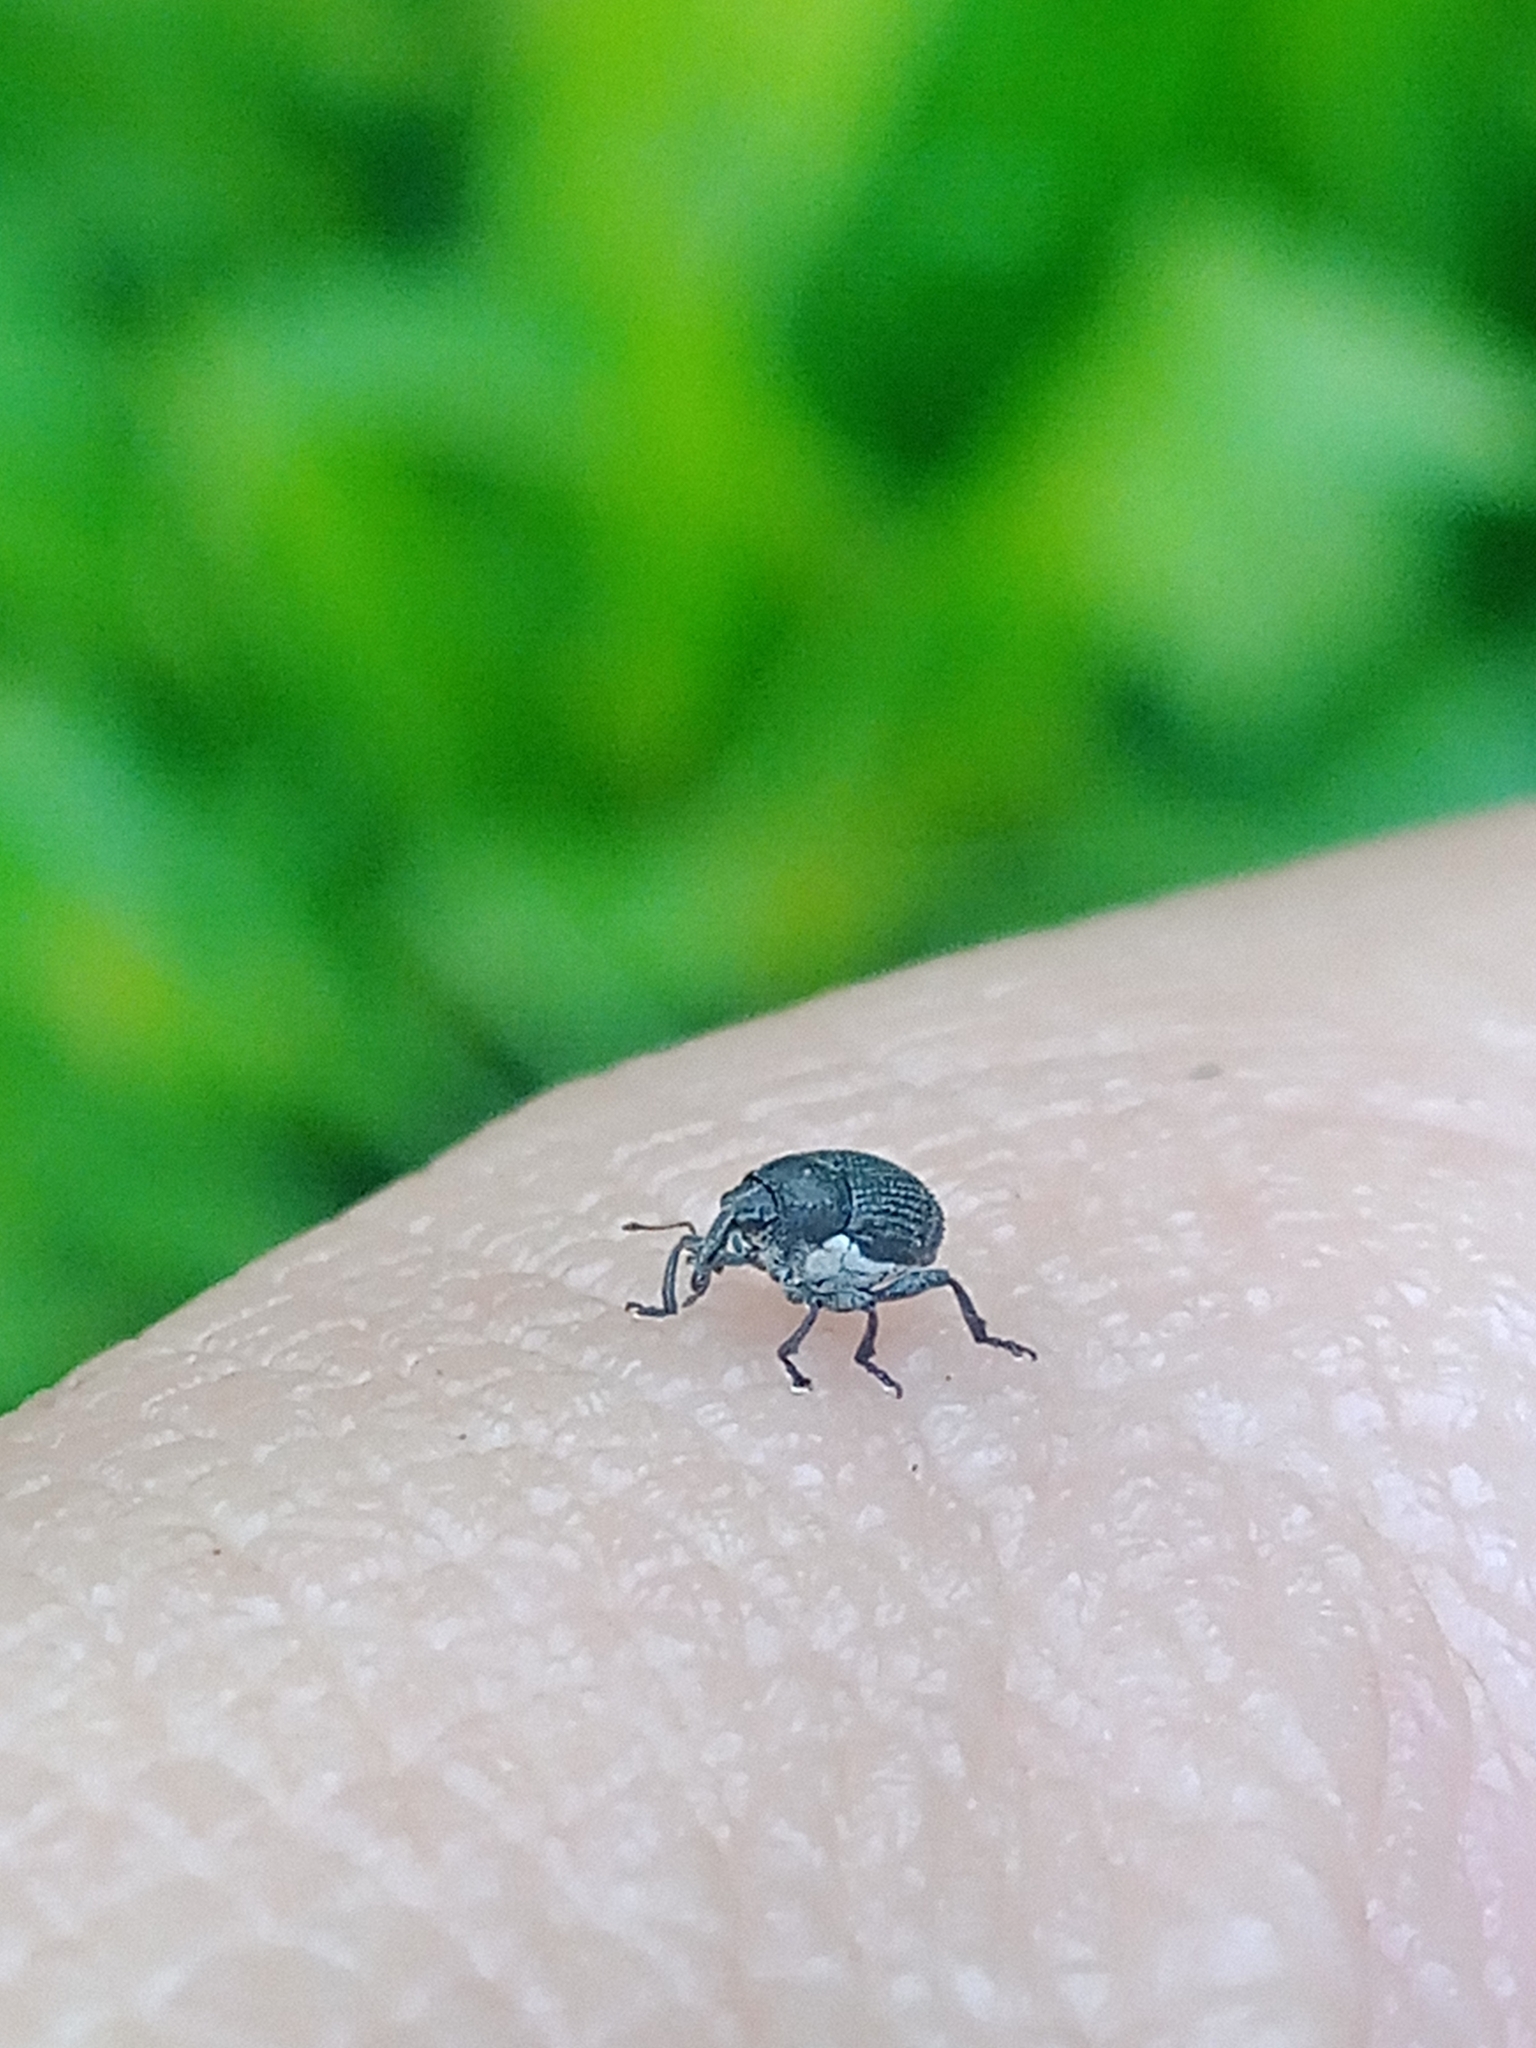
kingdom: Animalia
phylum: Arthropoda
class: Insecta
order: Coleoptera
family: Curculionidae
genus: Zacladus
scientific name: Zacladus geranii
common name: Meadow cranesbill weevil
